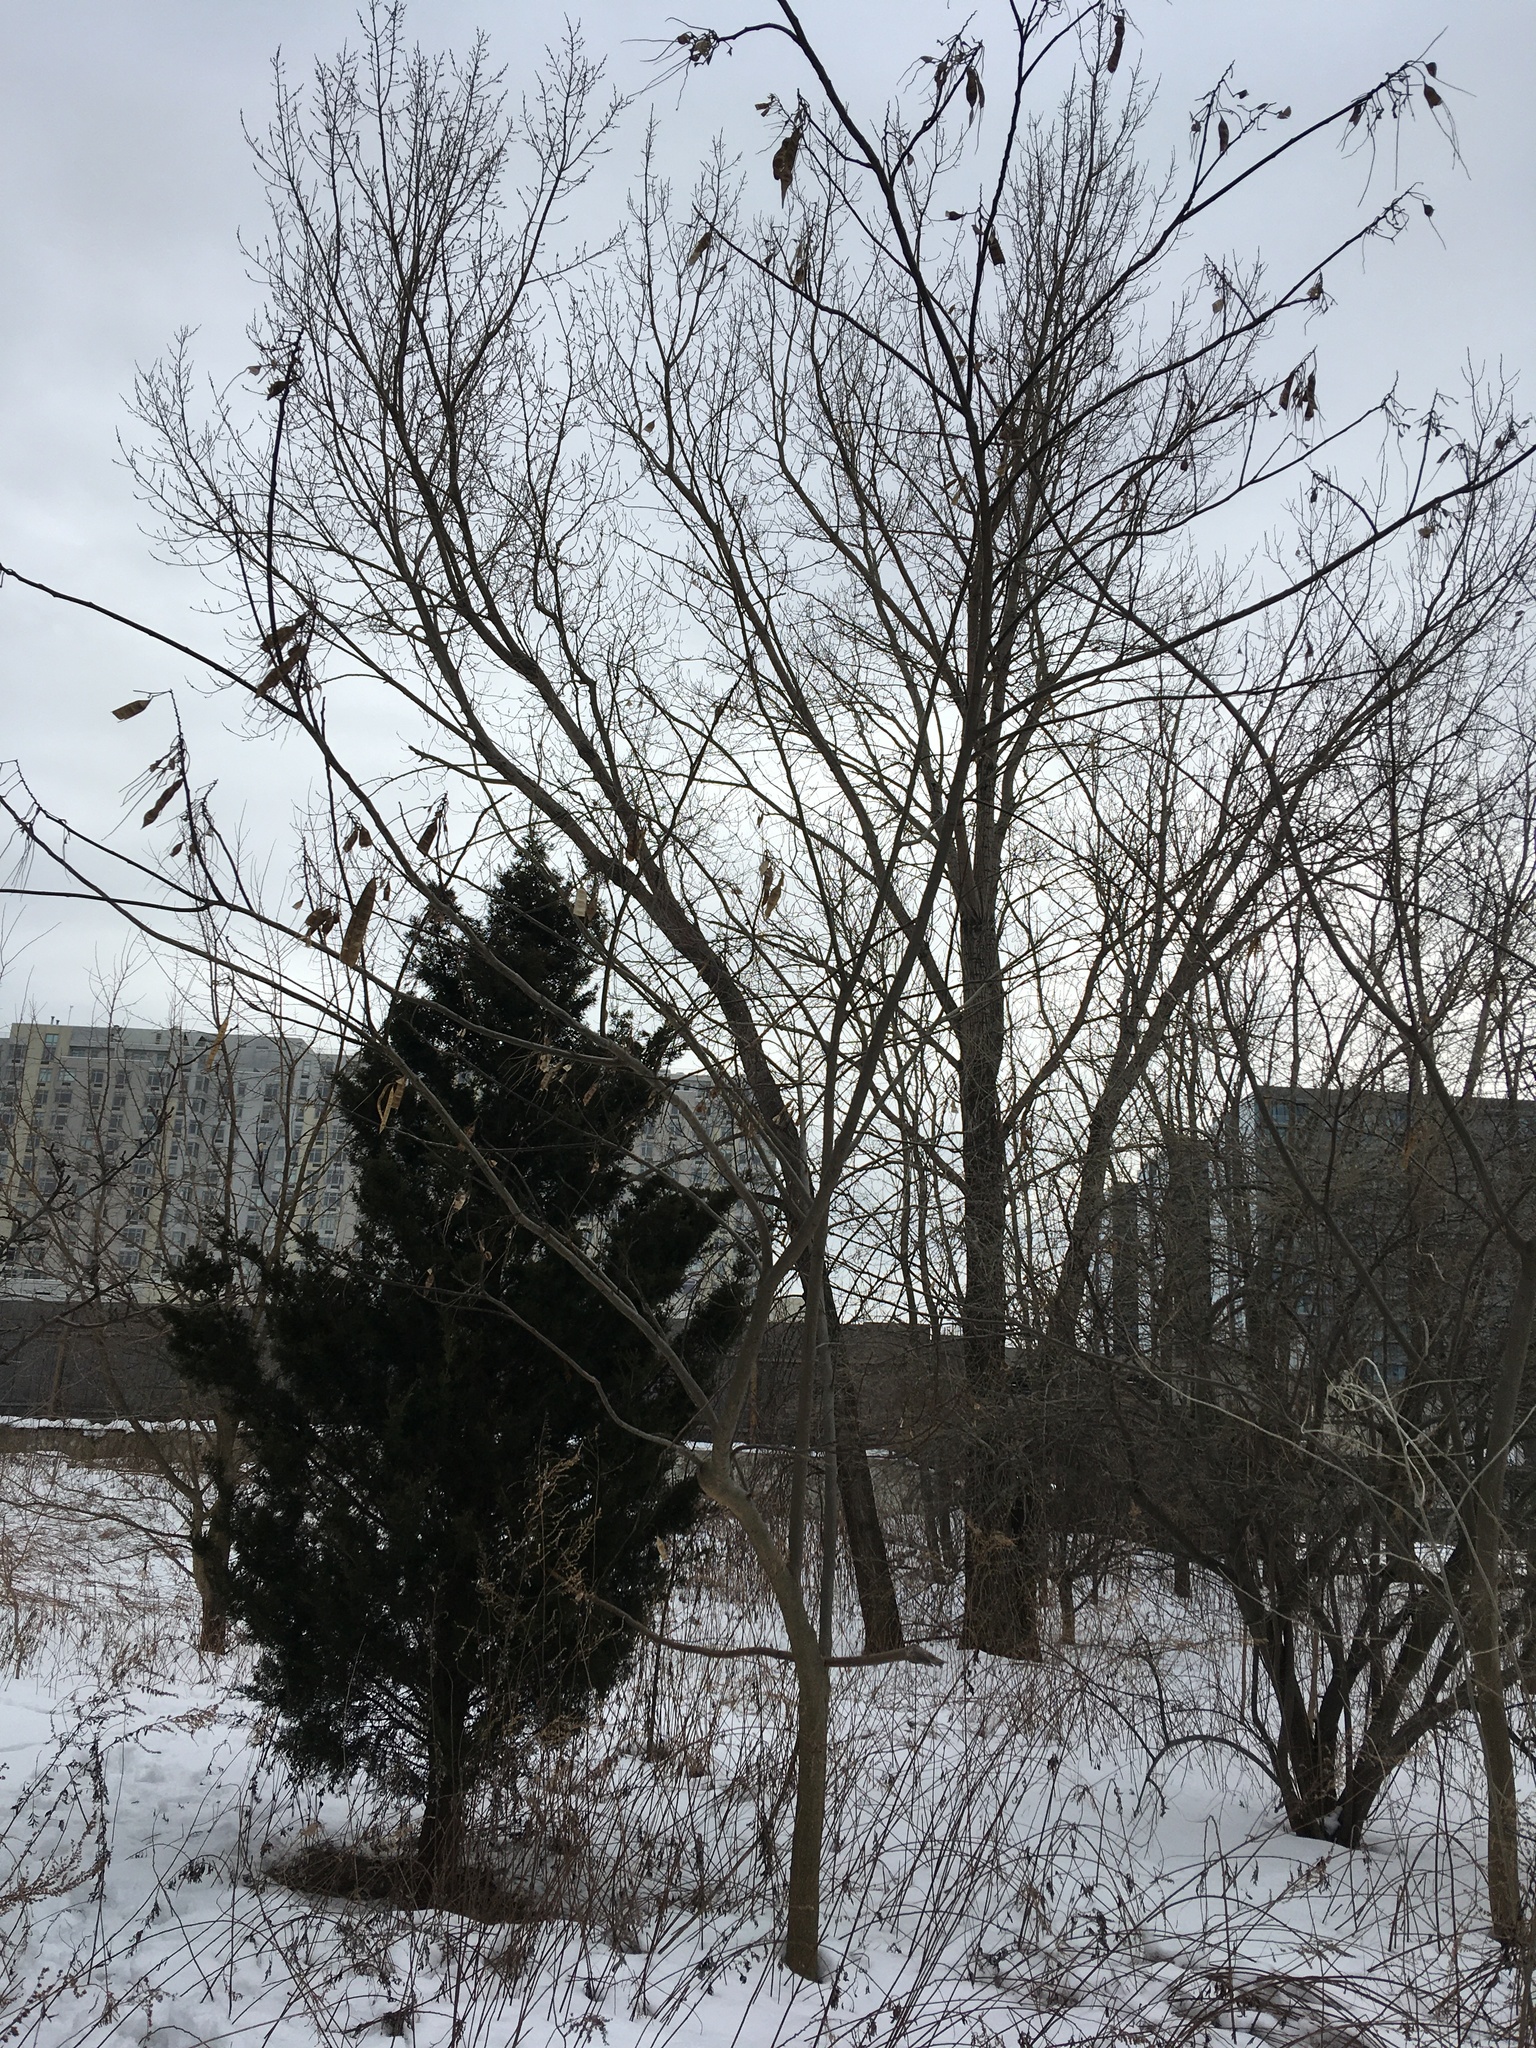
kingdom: Plantae
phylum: Tracheophyta
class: Magnoliopsida
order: Fabales
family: Fabaceae
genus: Albizia
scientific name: Albizia julibrissin
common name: Silktree
